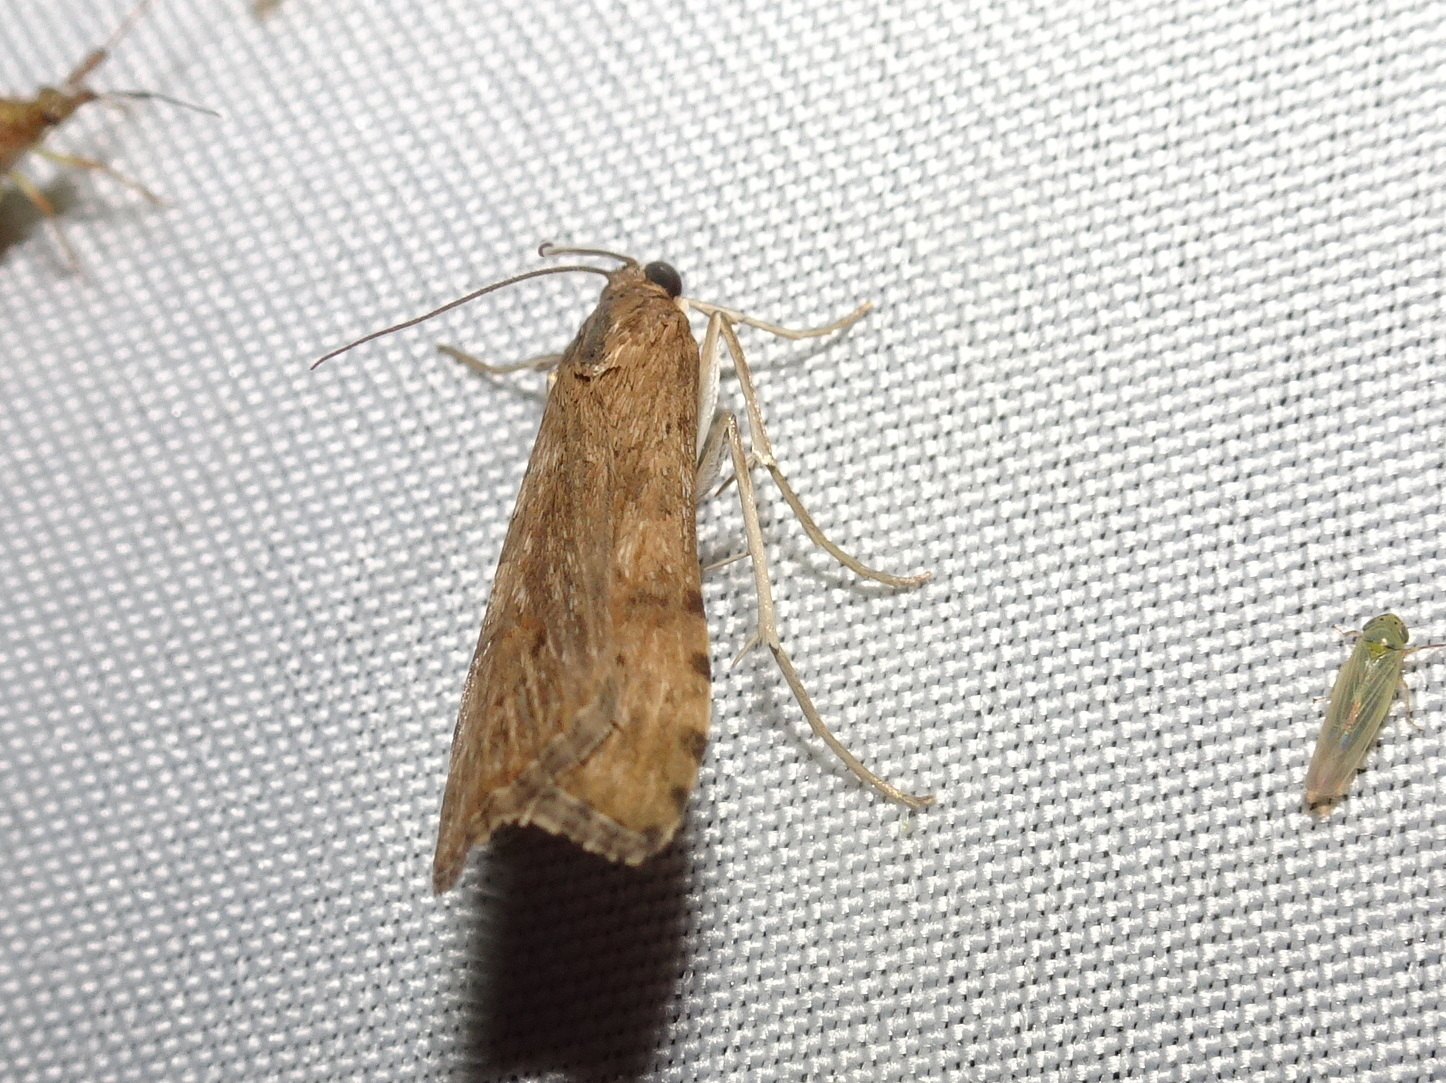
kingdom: Animalia
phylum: Arthropoda
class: Insecta
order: Lepidoptera
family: Crambidae
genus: Nomophila
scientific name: Nomophila nearctica
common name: American rush veneer
